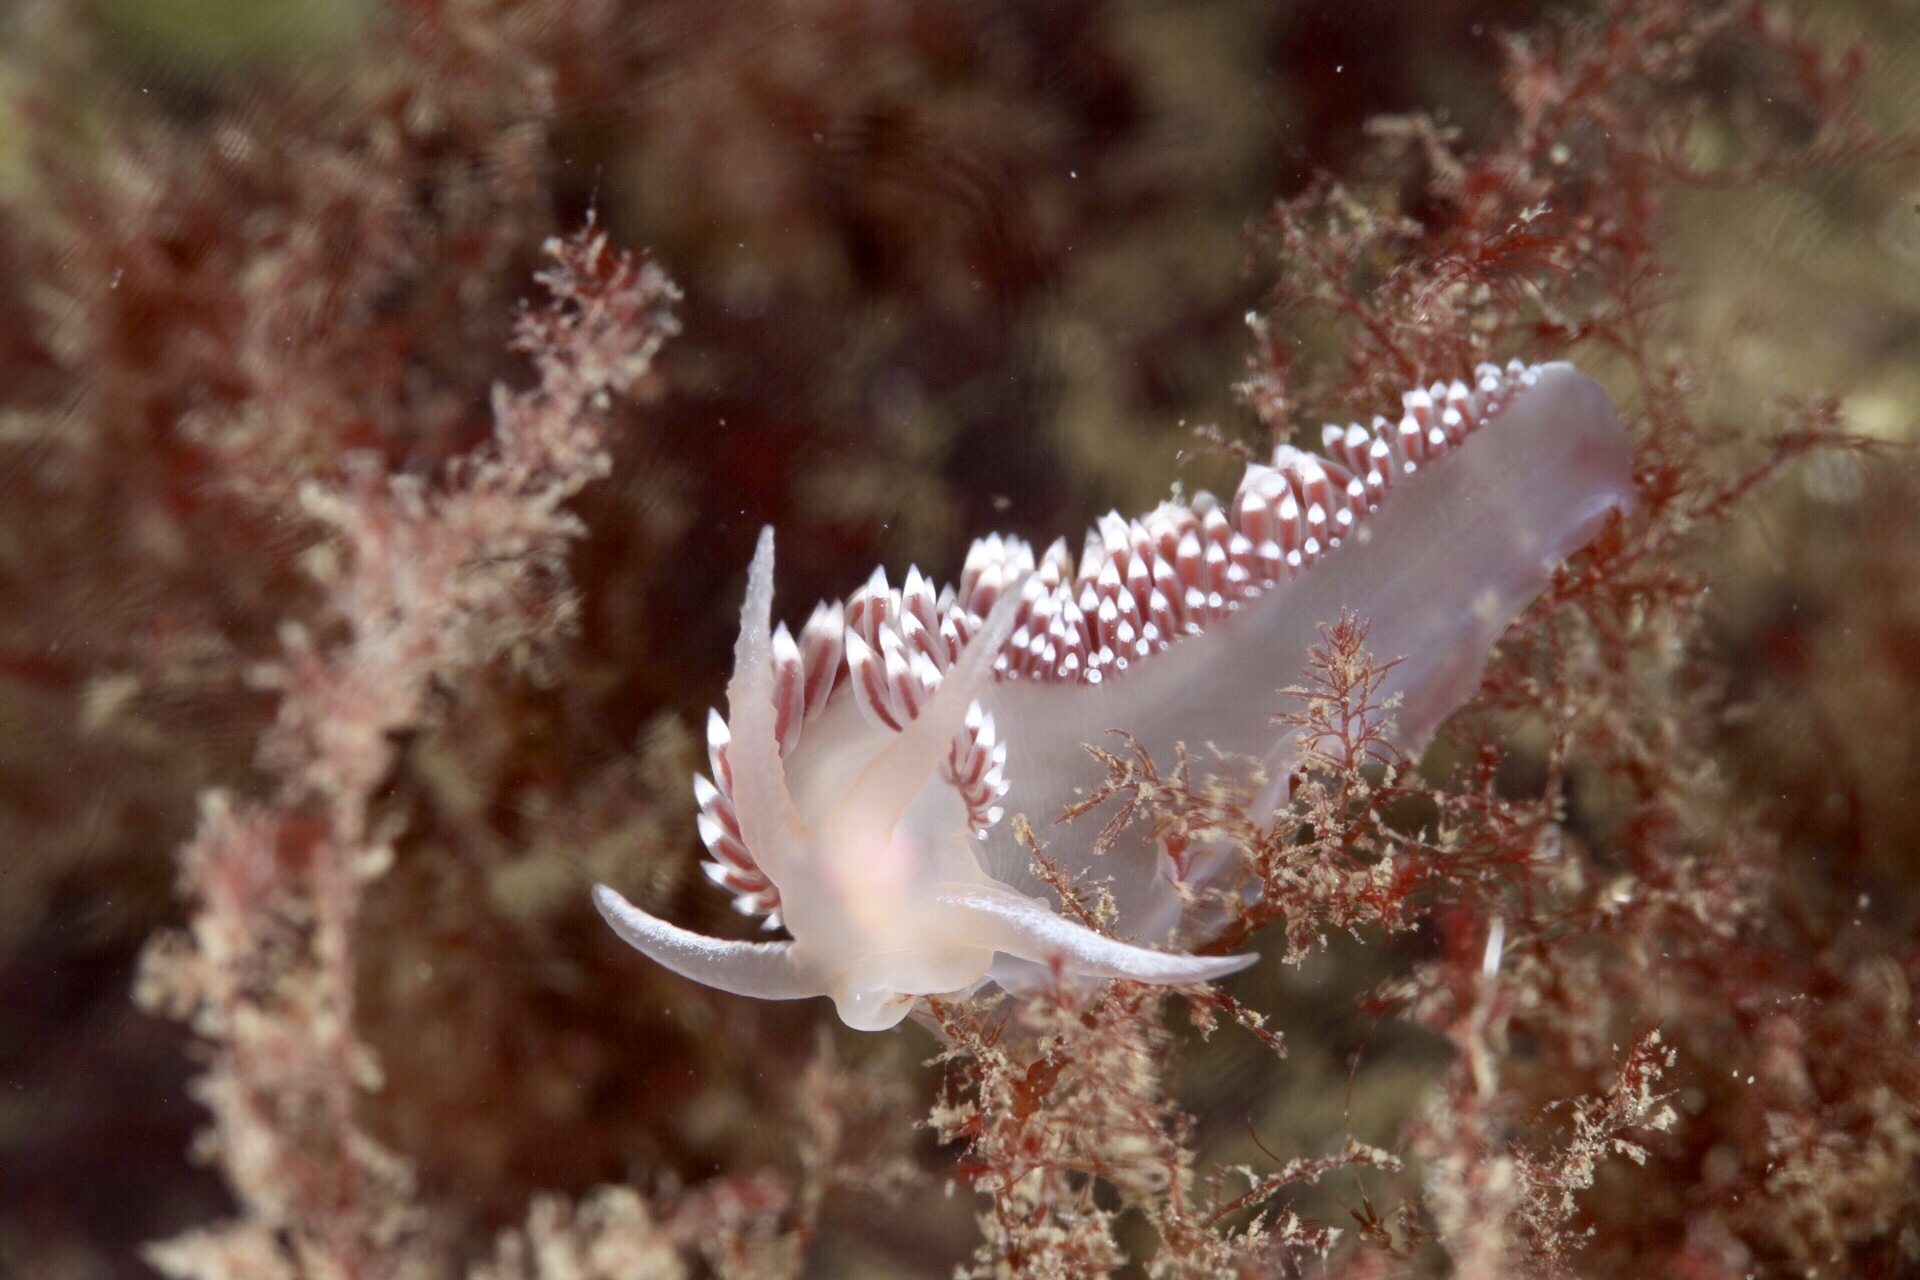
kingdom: Animalia
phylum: Mollusca
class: Gastropoda
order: Nudibranchia
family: Coryphellidae
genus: Coryphella
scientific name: Coryphella verrucosa
